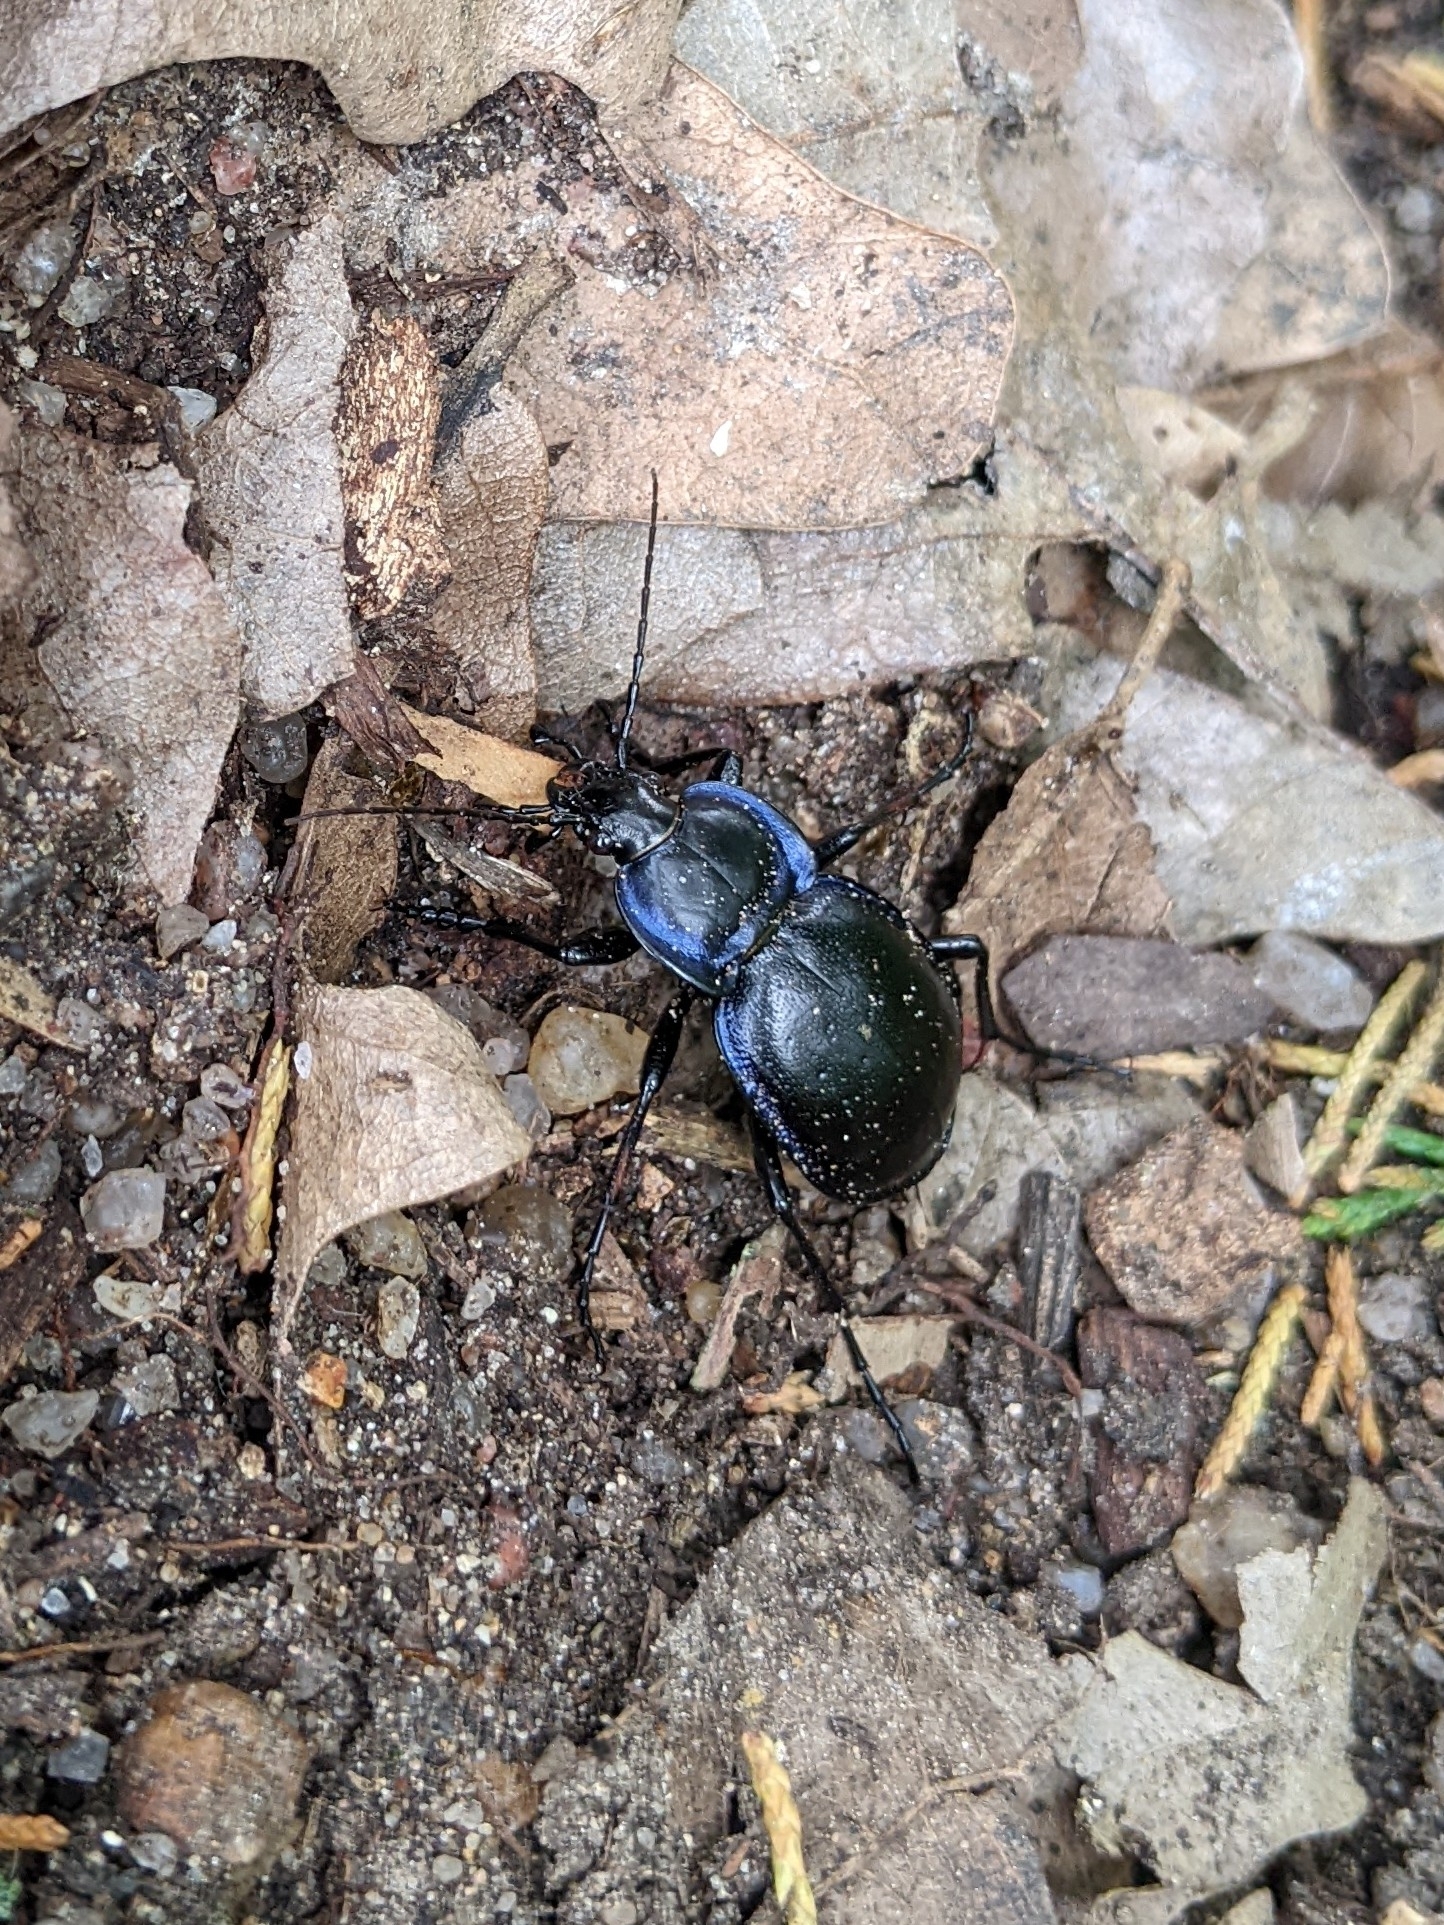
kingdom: Animalia
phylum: Arthropoda
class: Insecta
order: Coleoptera
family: Carabidae
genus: Carabus
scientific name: Carabus finitimus
